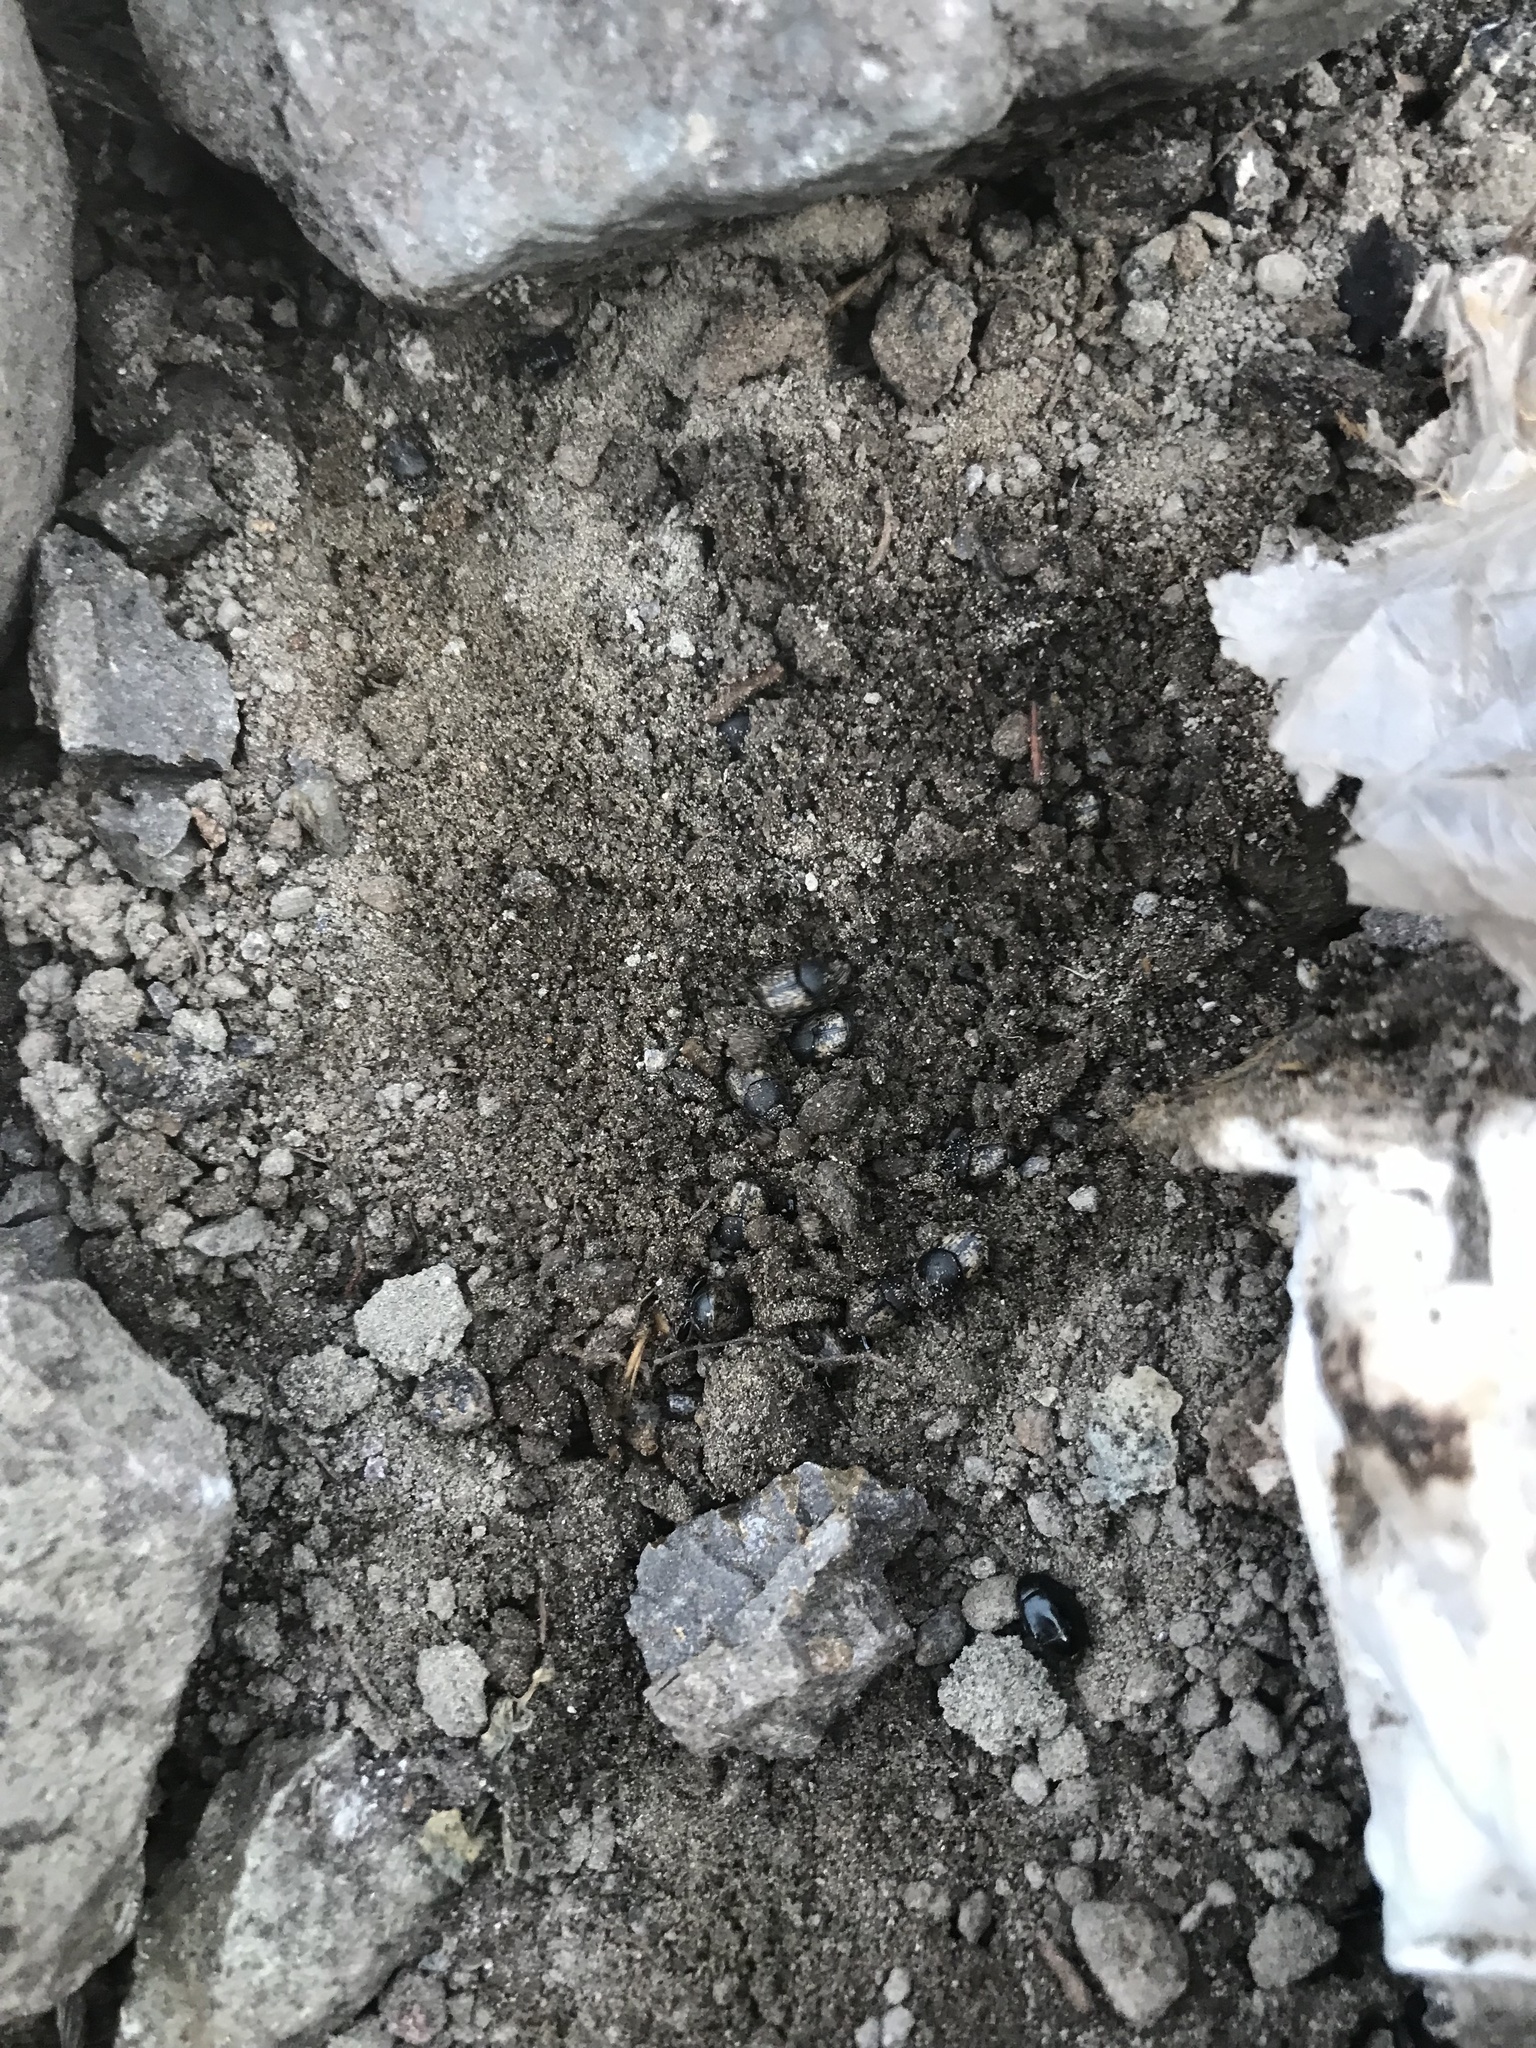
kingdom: Animalia
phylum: Arthropoda
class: Insecta
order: Coleoptera
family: Scarabaeidae
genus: Onthophagus
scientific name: Onthophagus nuchicornis
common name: Mottled dung beetle
